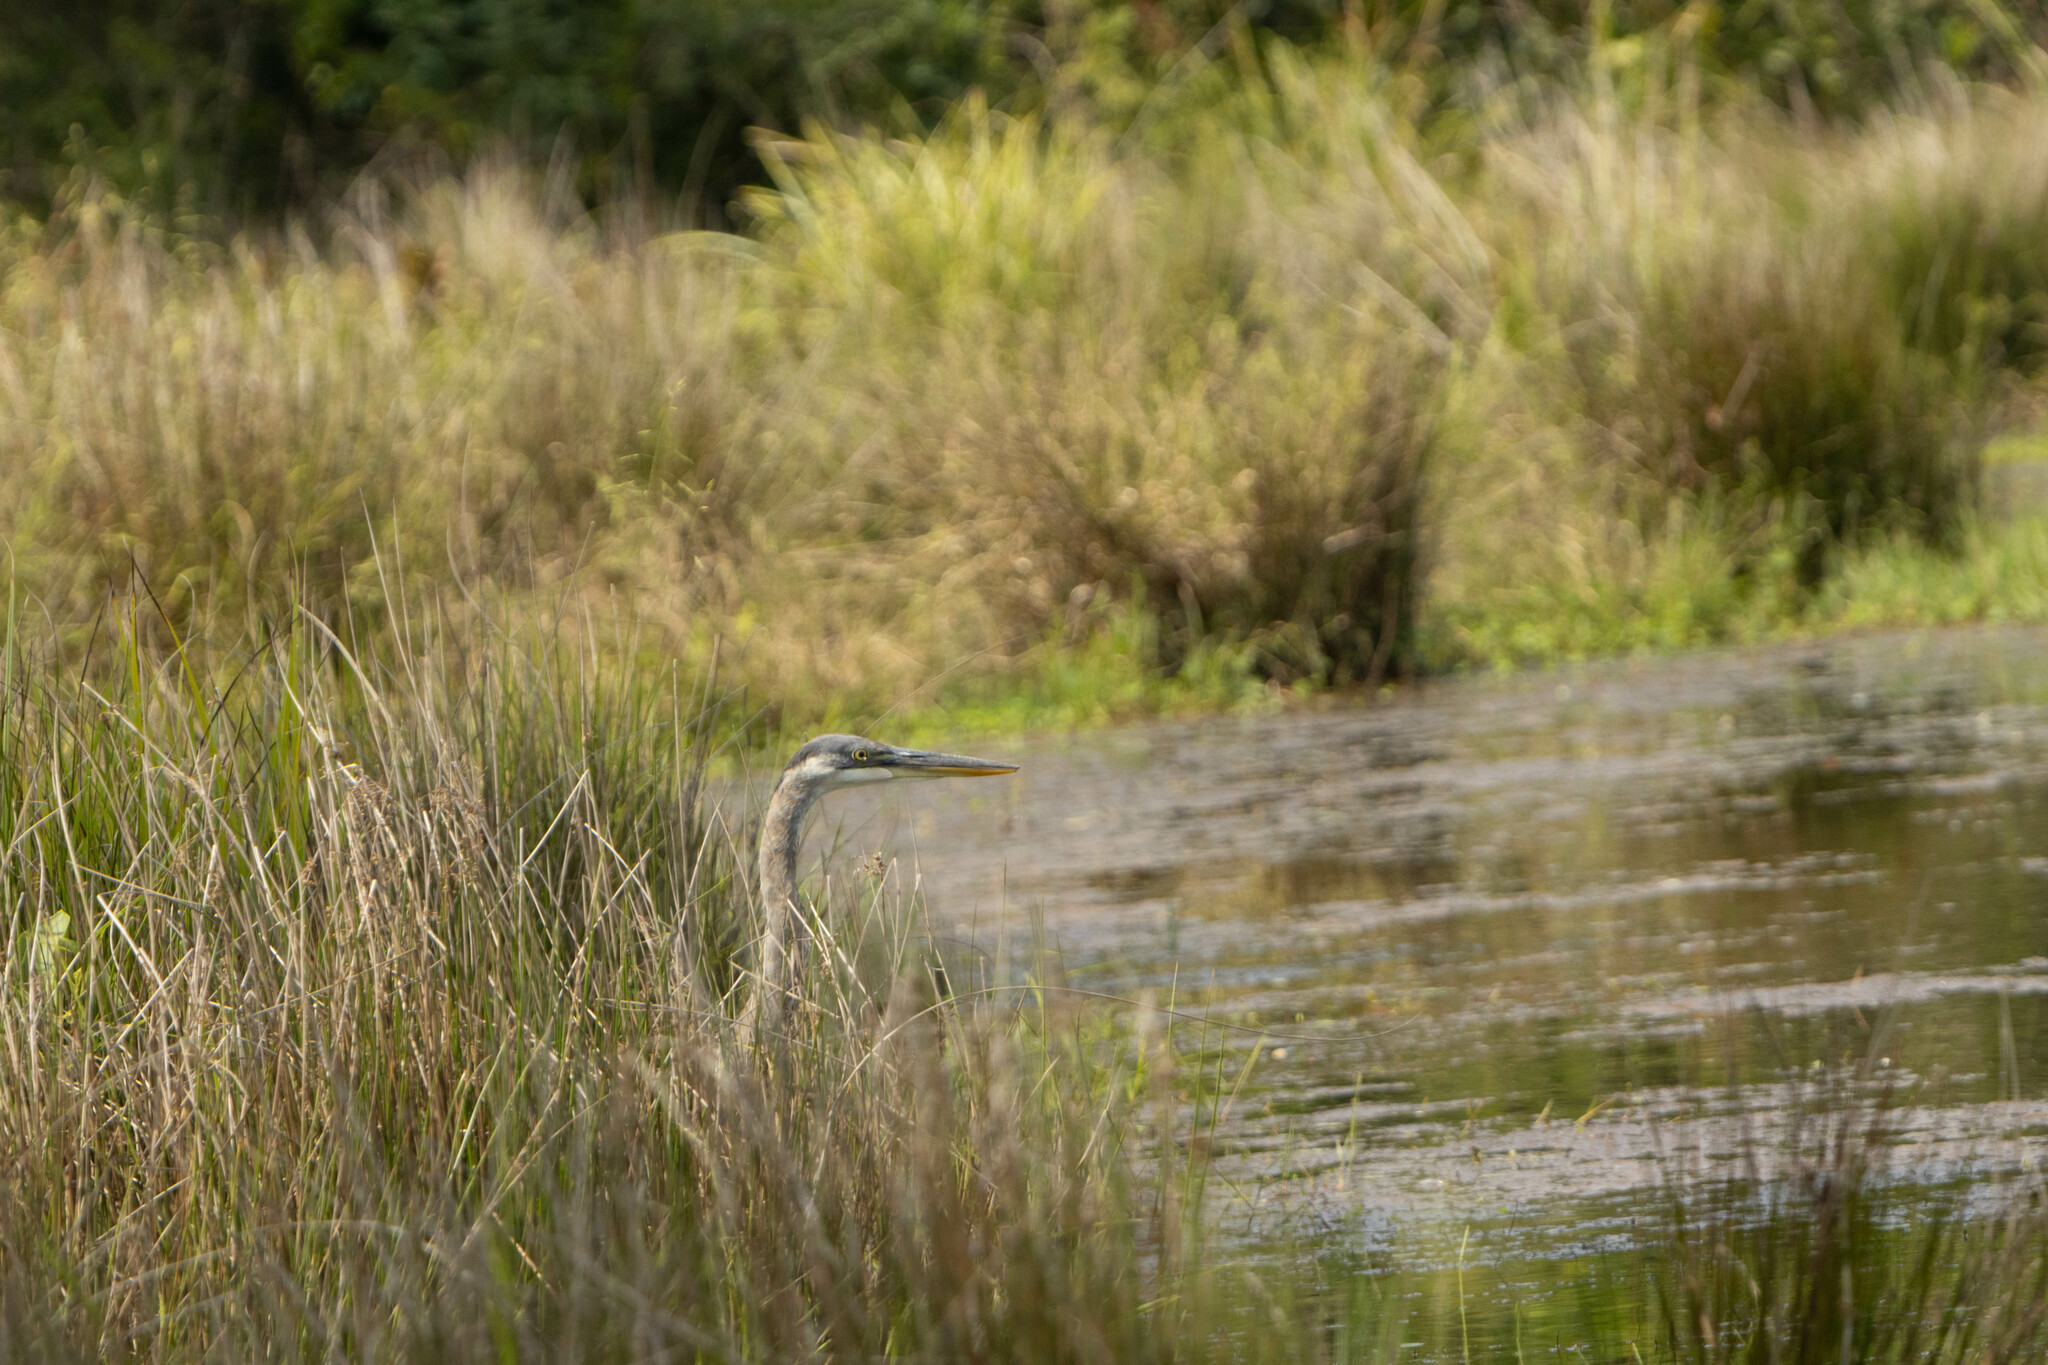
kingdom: Animalia
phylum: Chordata
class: Aves
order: Pelecaniformes
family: Ardeidae
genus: Ardea
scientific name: Ardea herodias
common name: Great blue heron
